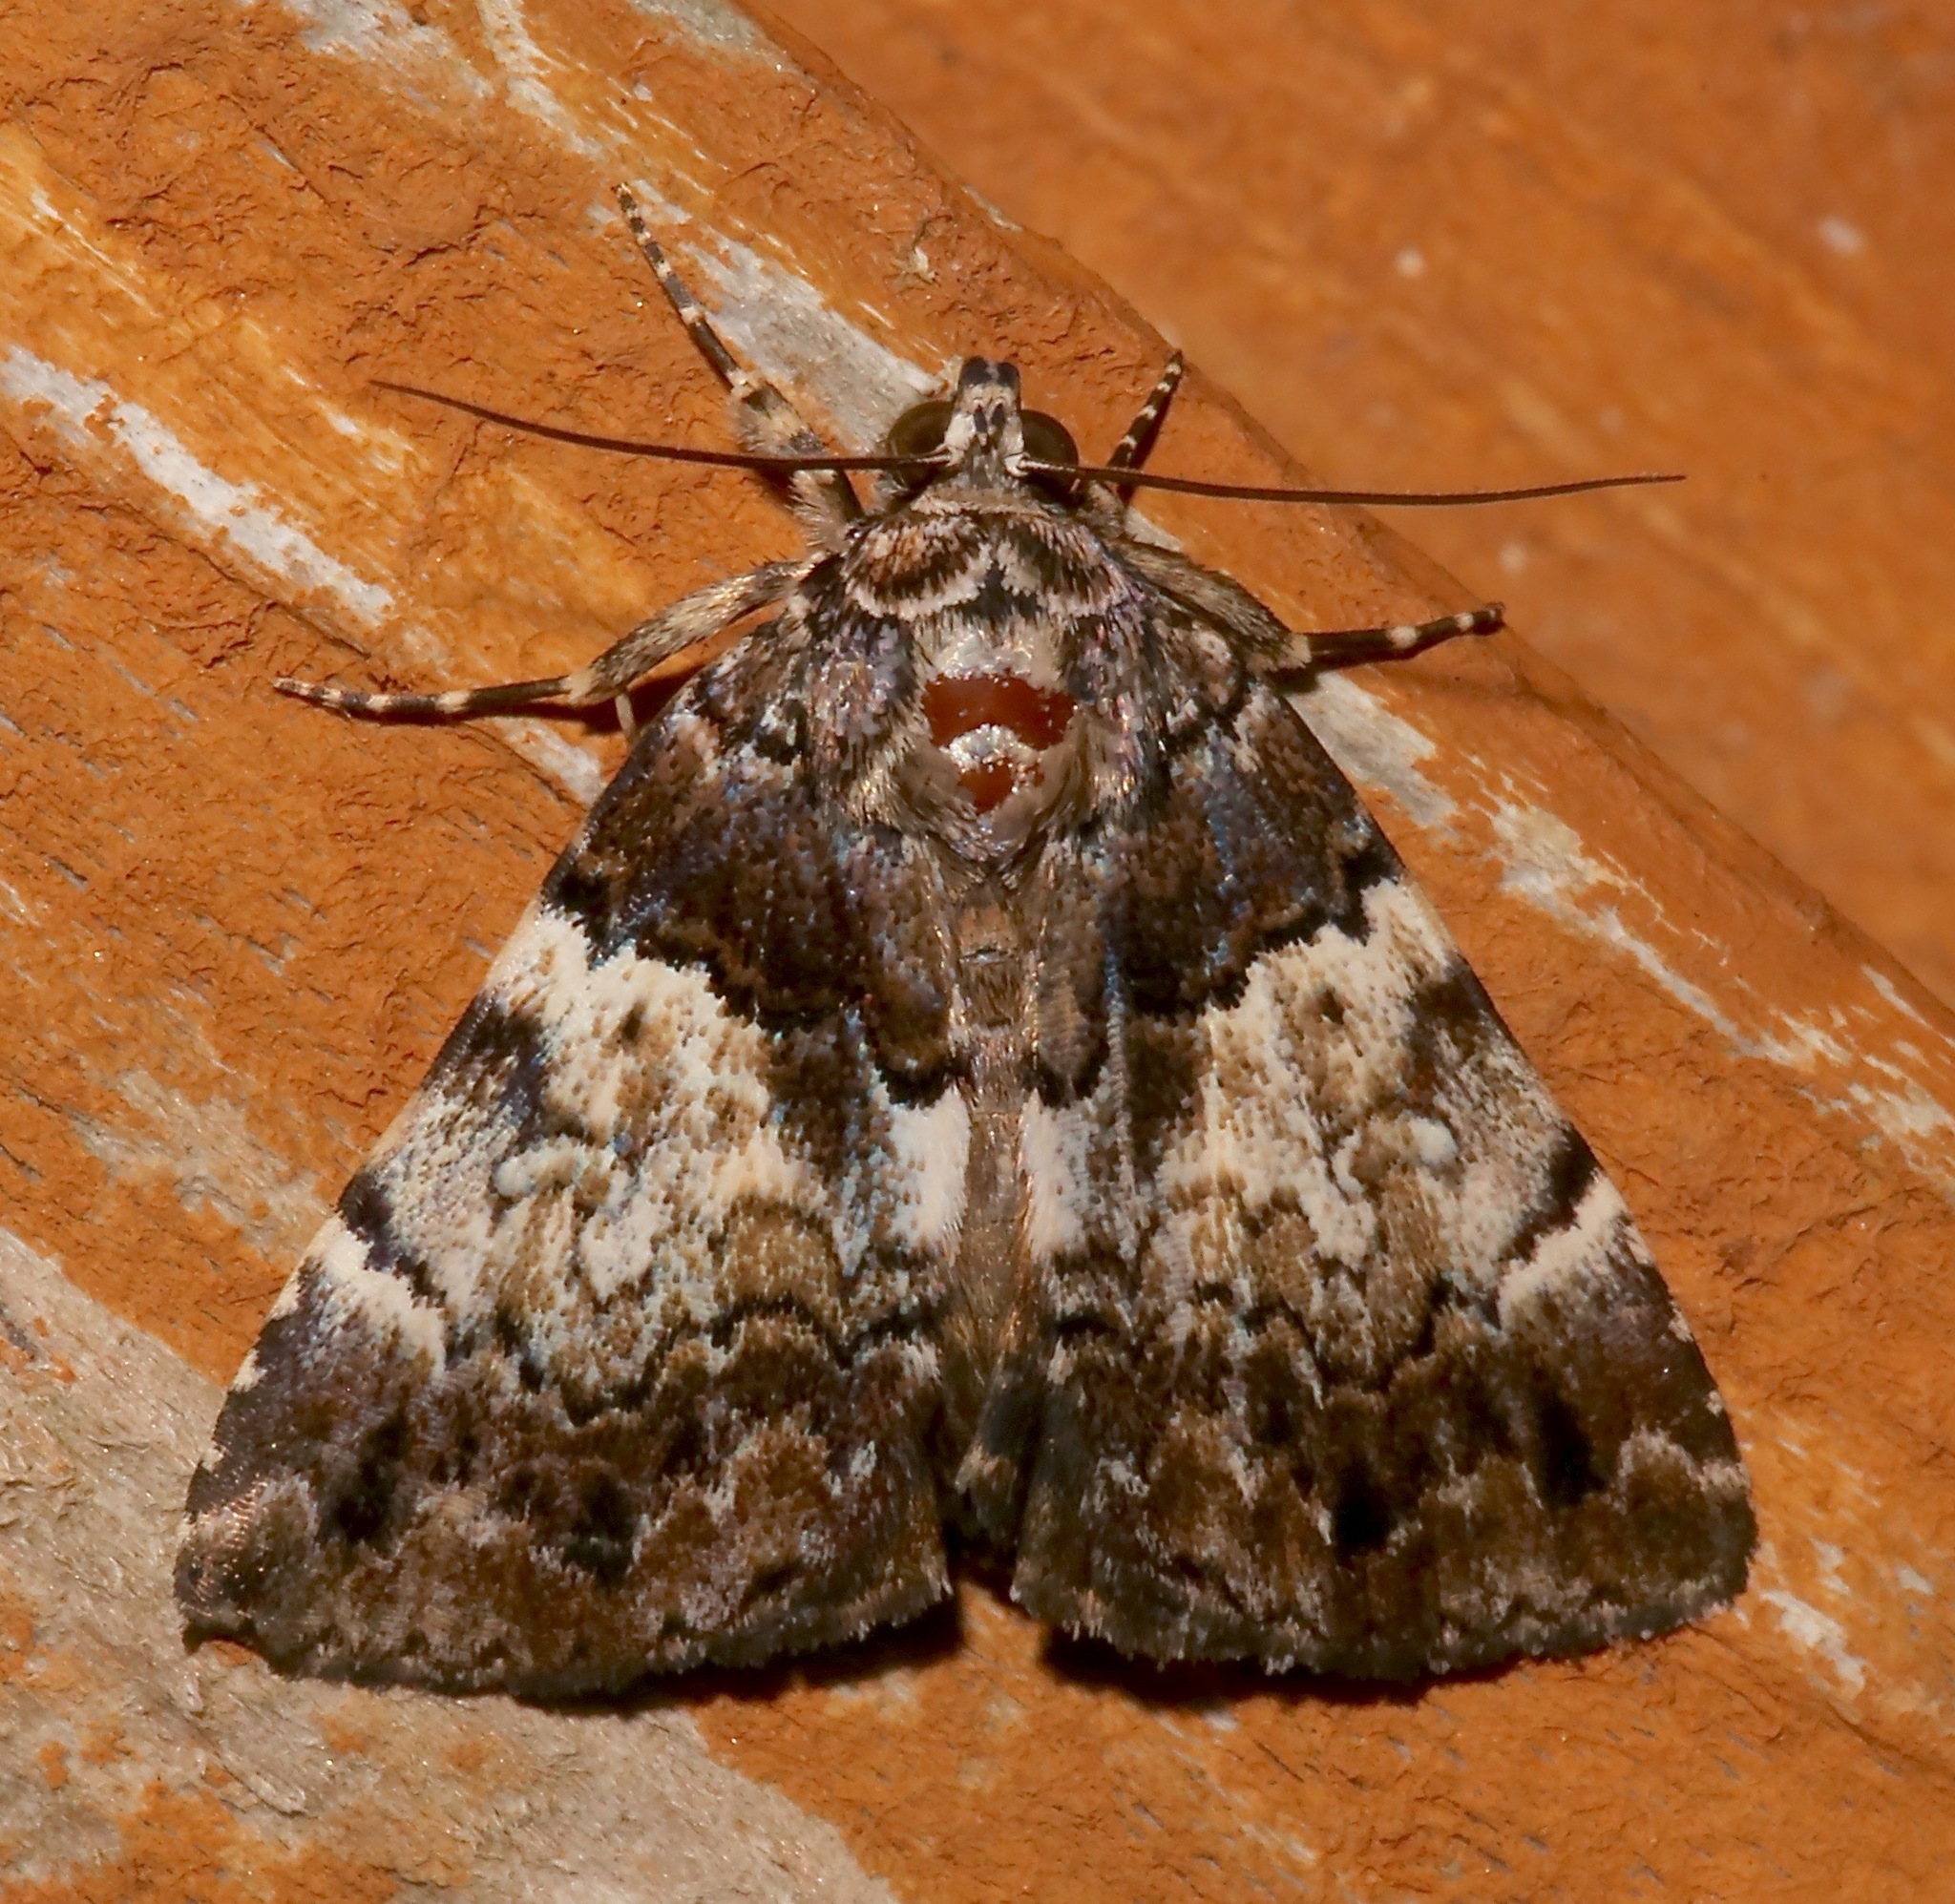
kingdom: Animalia
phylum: Arthropoda
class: Insecta
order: Lepidoptera
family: Erebidae
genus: Allotria
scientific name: Allotria elonympha
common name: False underwing
